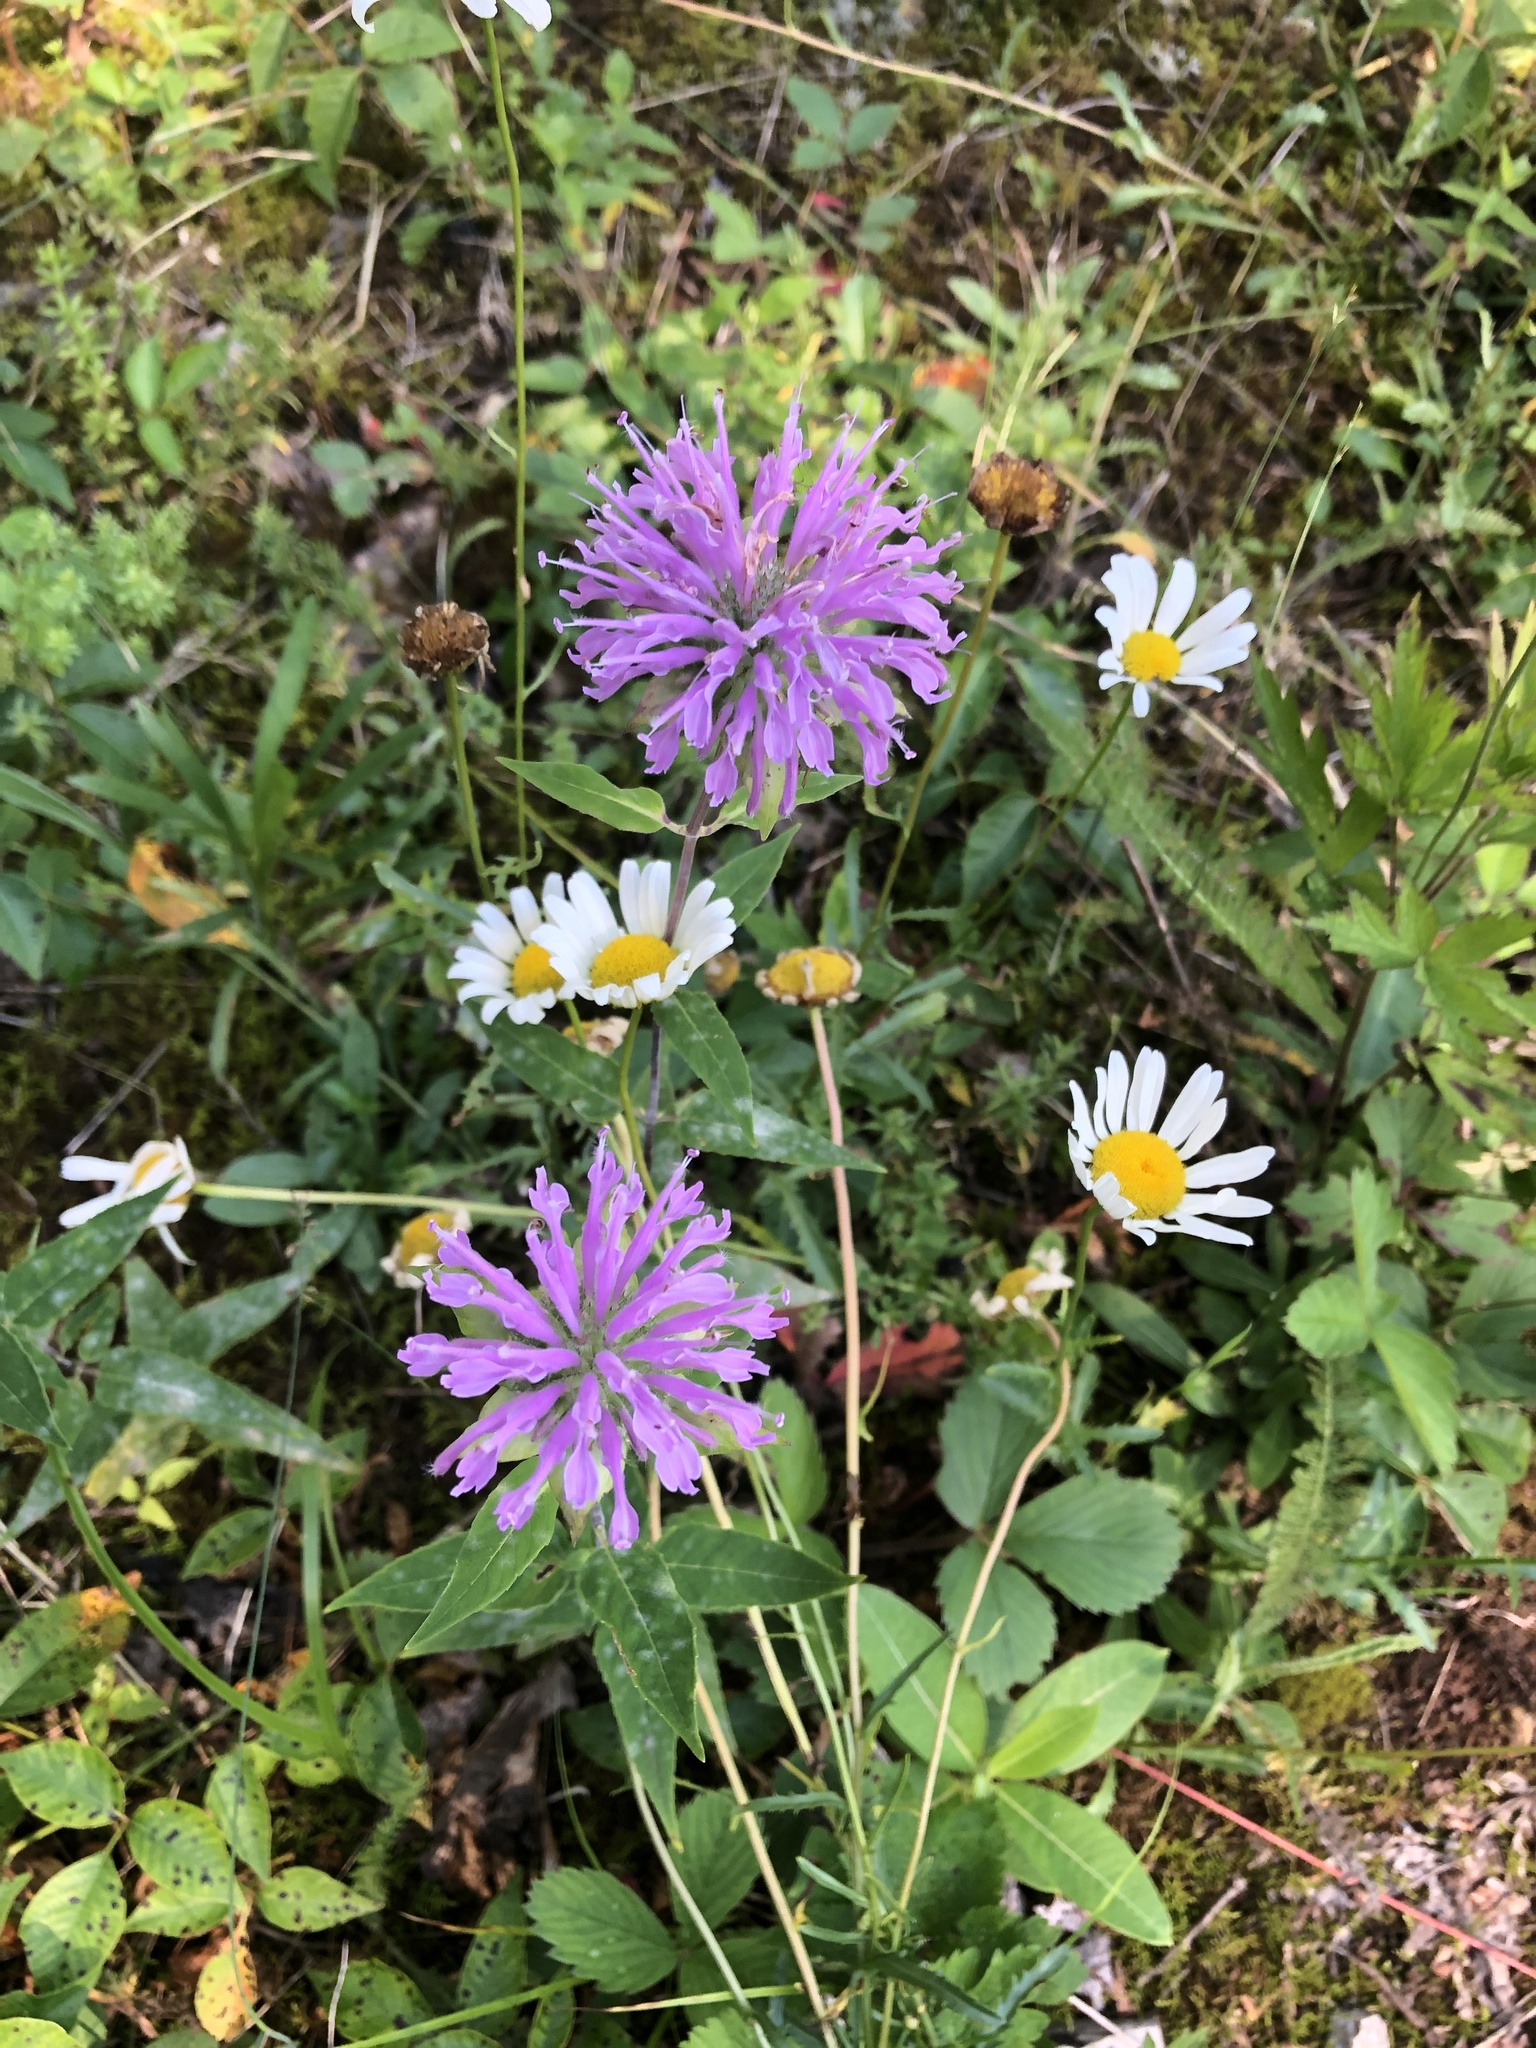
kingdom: Plantae
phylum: Tracheophyta
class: Magnoliopsida
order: Lamiales
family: Lamiaceae
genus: Monarda
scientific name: Monarda fistulosa
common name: Purple beebalm
